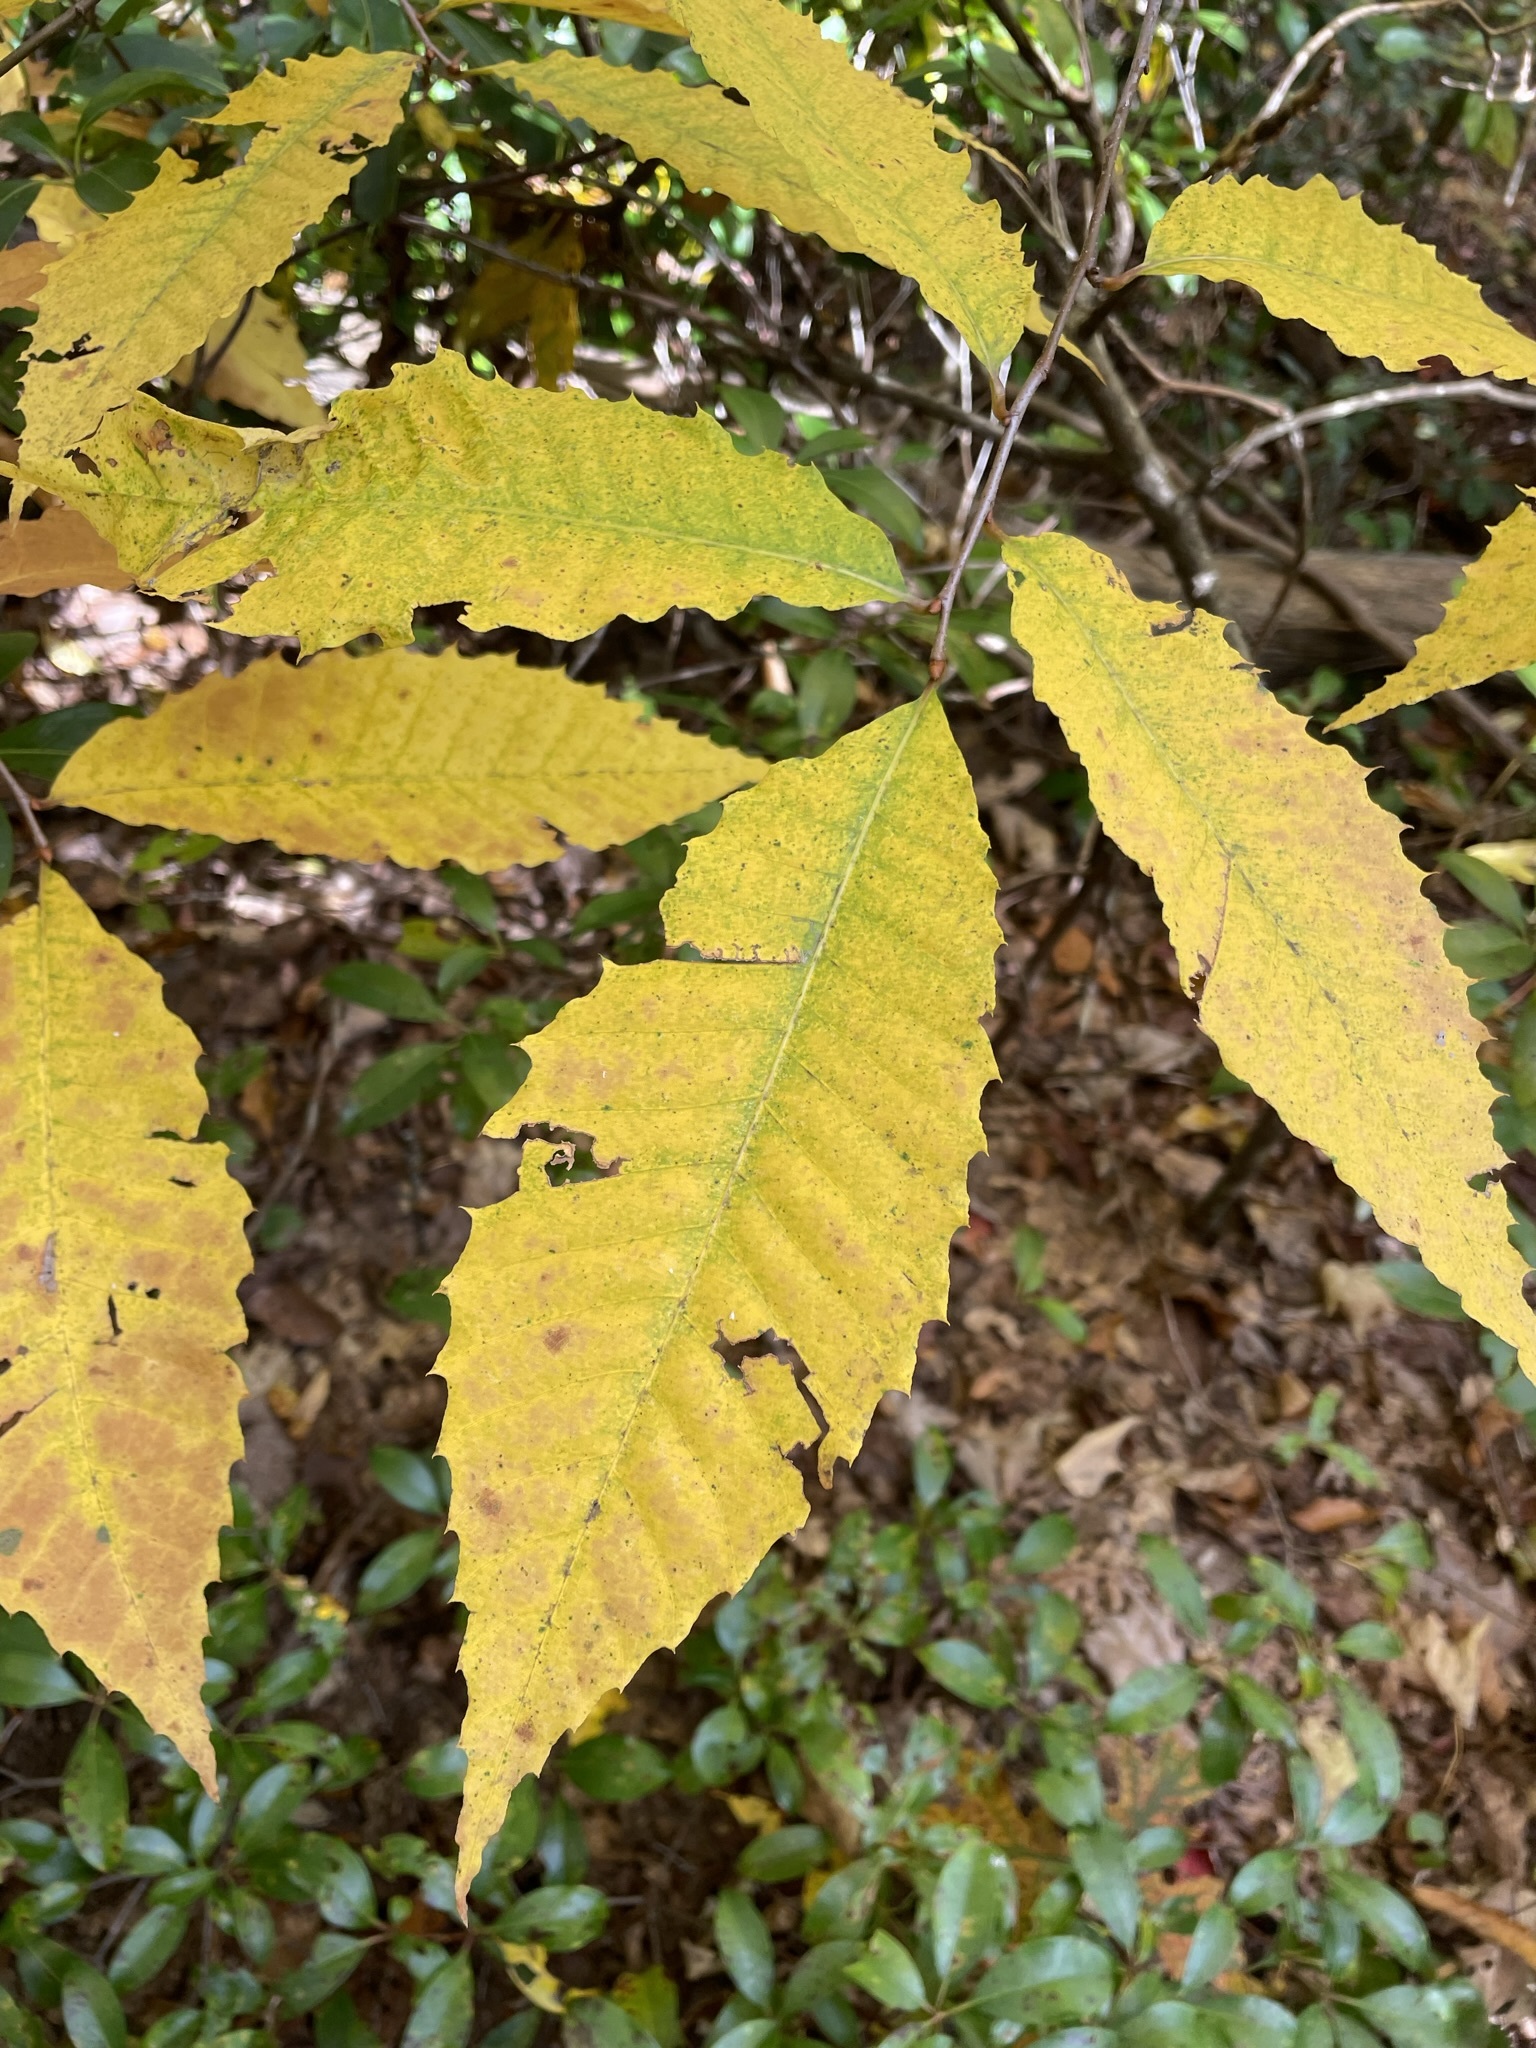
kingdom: Plantae
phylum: Tracheophyta
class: Magnoliopsida
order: Fagales
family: Fagaceae
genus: Castanea
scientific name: Castanea dentata
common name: American chestnut
